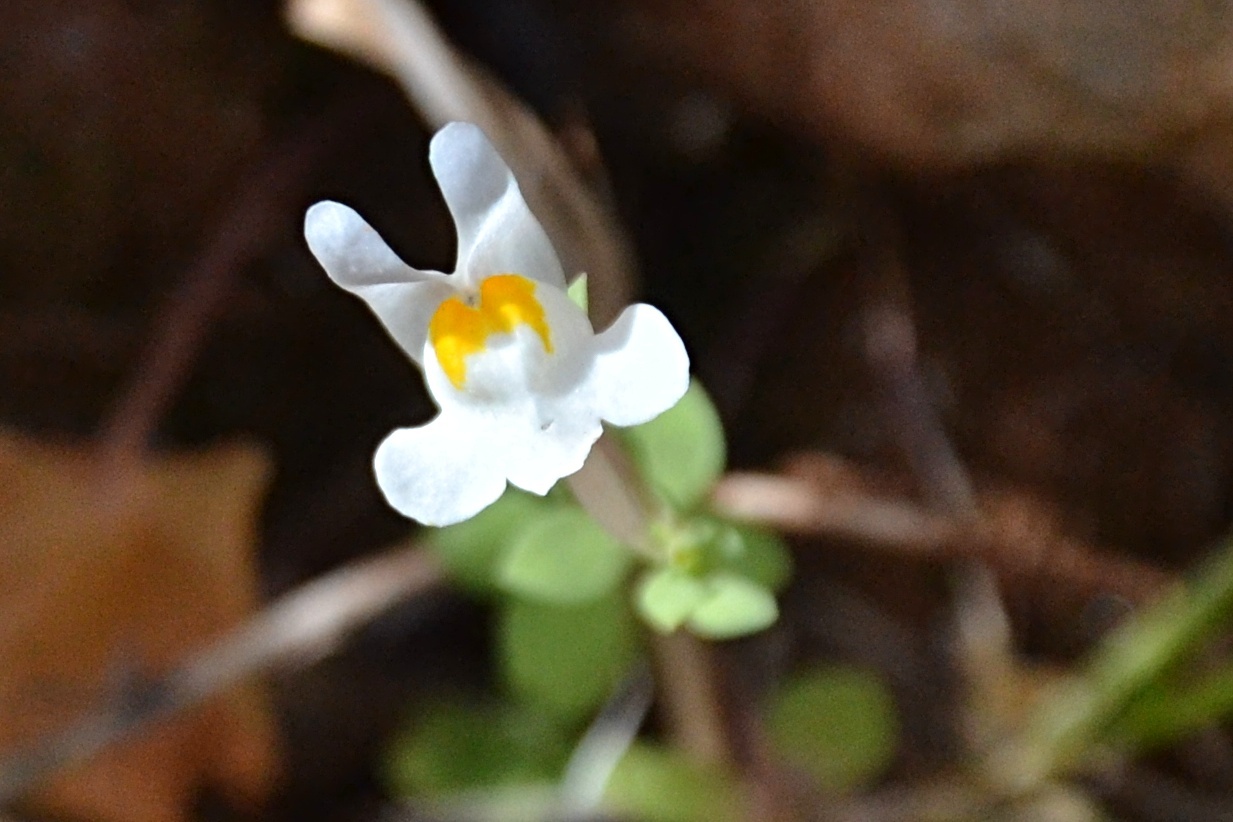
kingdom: Plantae
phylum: Tracheophyta
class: Magnoliopsida
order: Lamiales
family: Plantaginaceae
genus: Linaria
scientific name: Linaria reflexa
